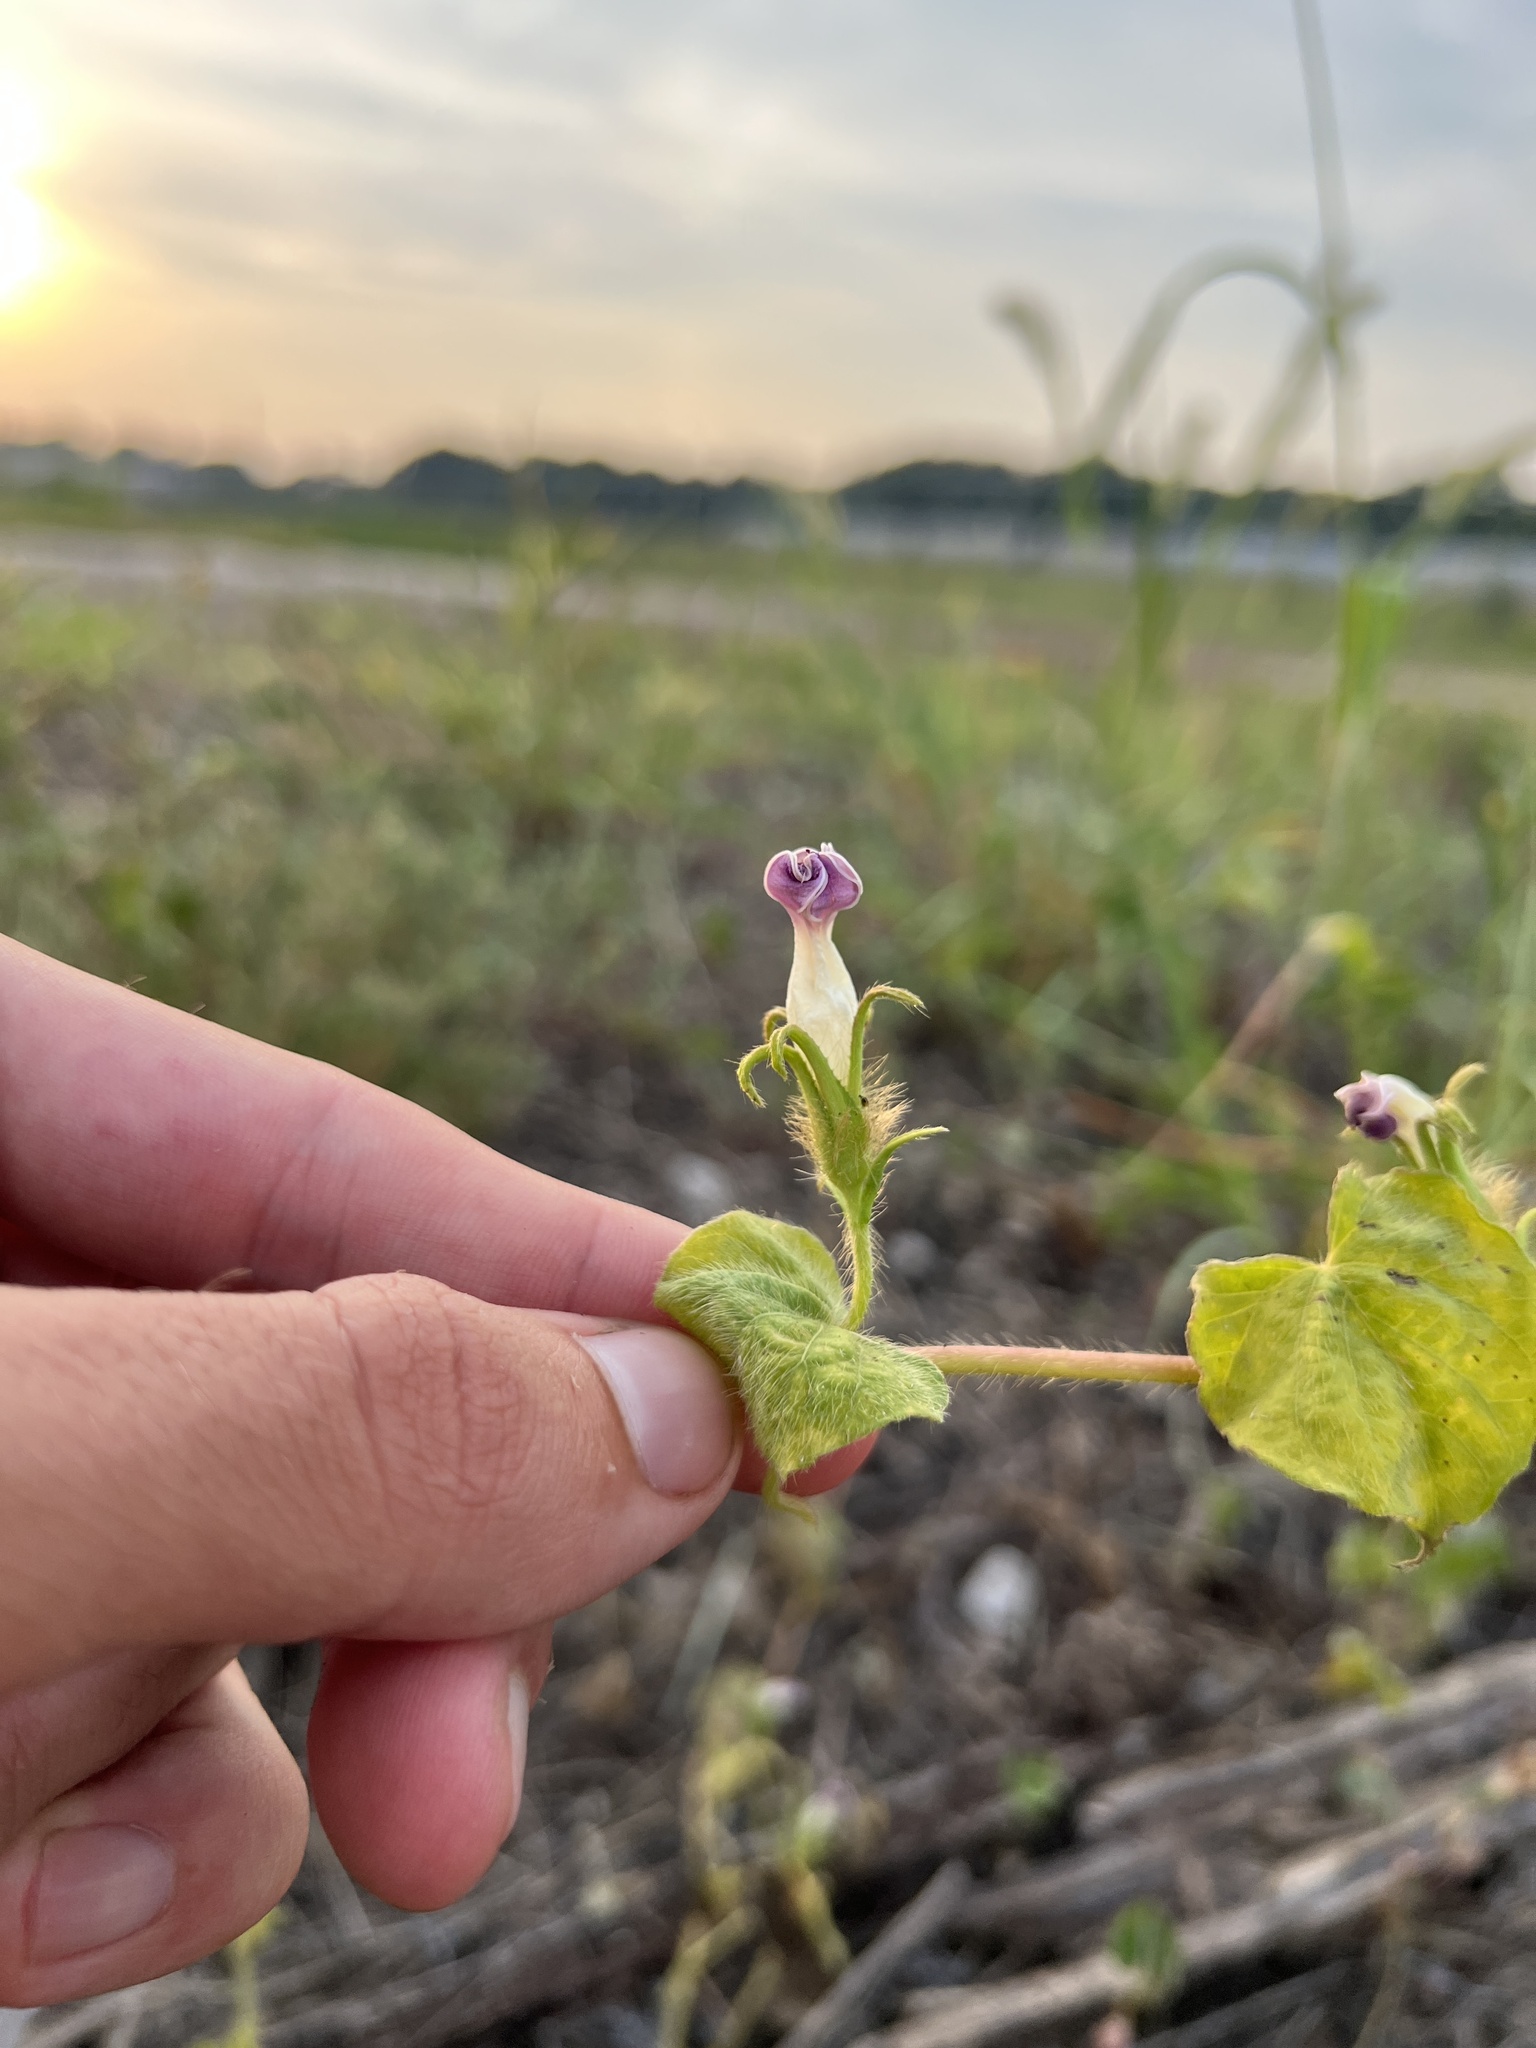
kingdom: Plantae
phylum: Tracheophyta
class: Magnoliopsida
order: Solanales
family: Convolvulaceae
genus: Ipomoea
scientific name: Ipomoea hederacea
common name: Ivy-leaved morning-glory
